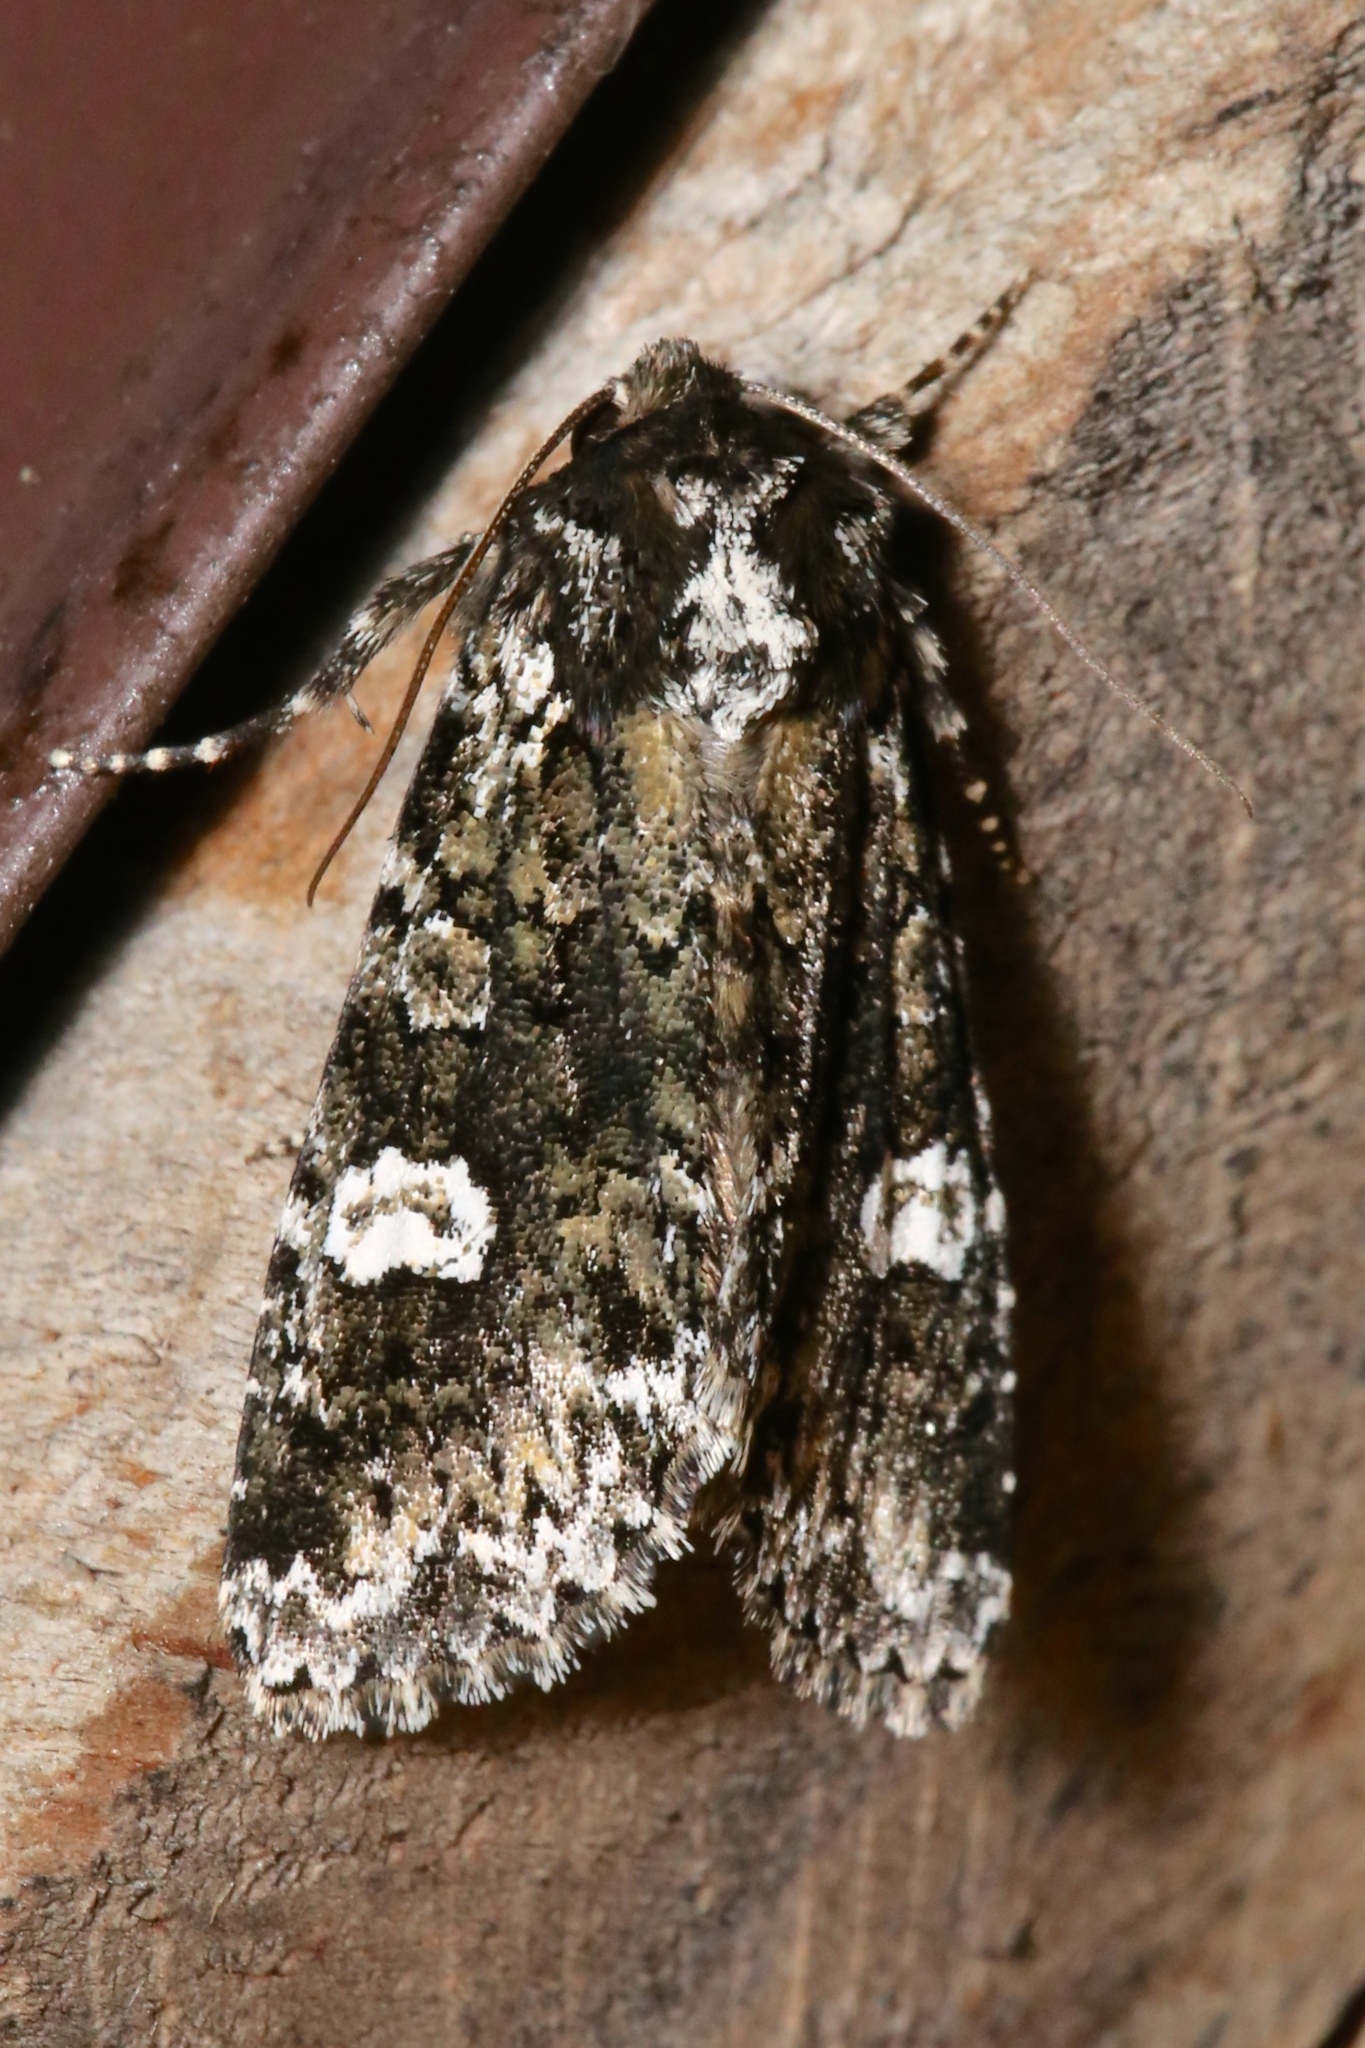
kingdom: Animalia
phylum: Arthropoda
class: Insecta
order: Lepidoptera
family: Noctuidae
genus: Melanchra
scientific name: Melanchra adjuncta
